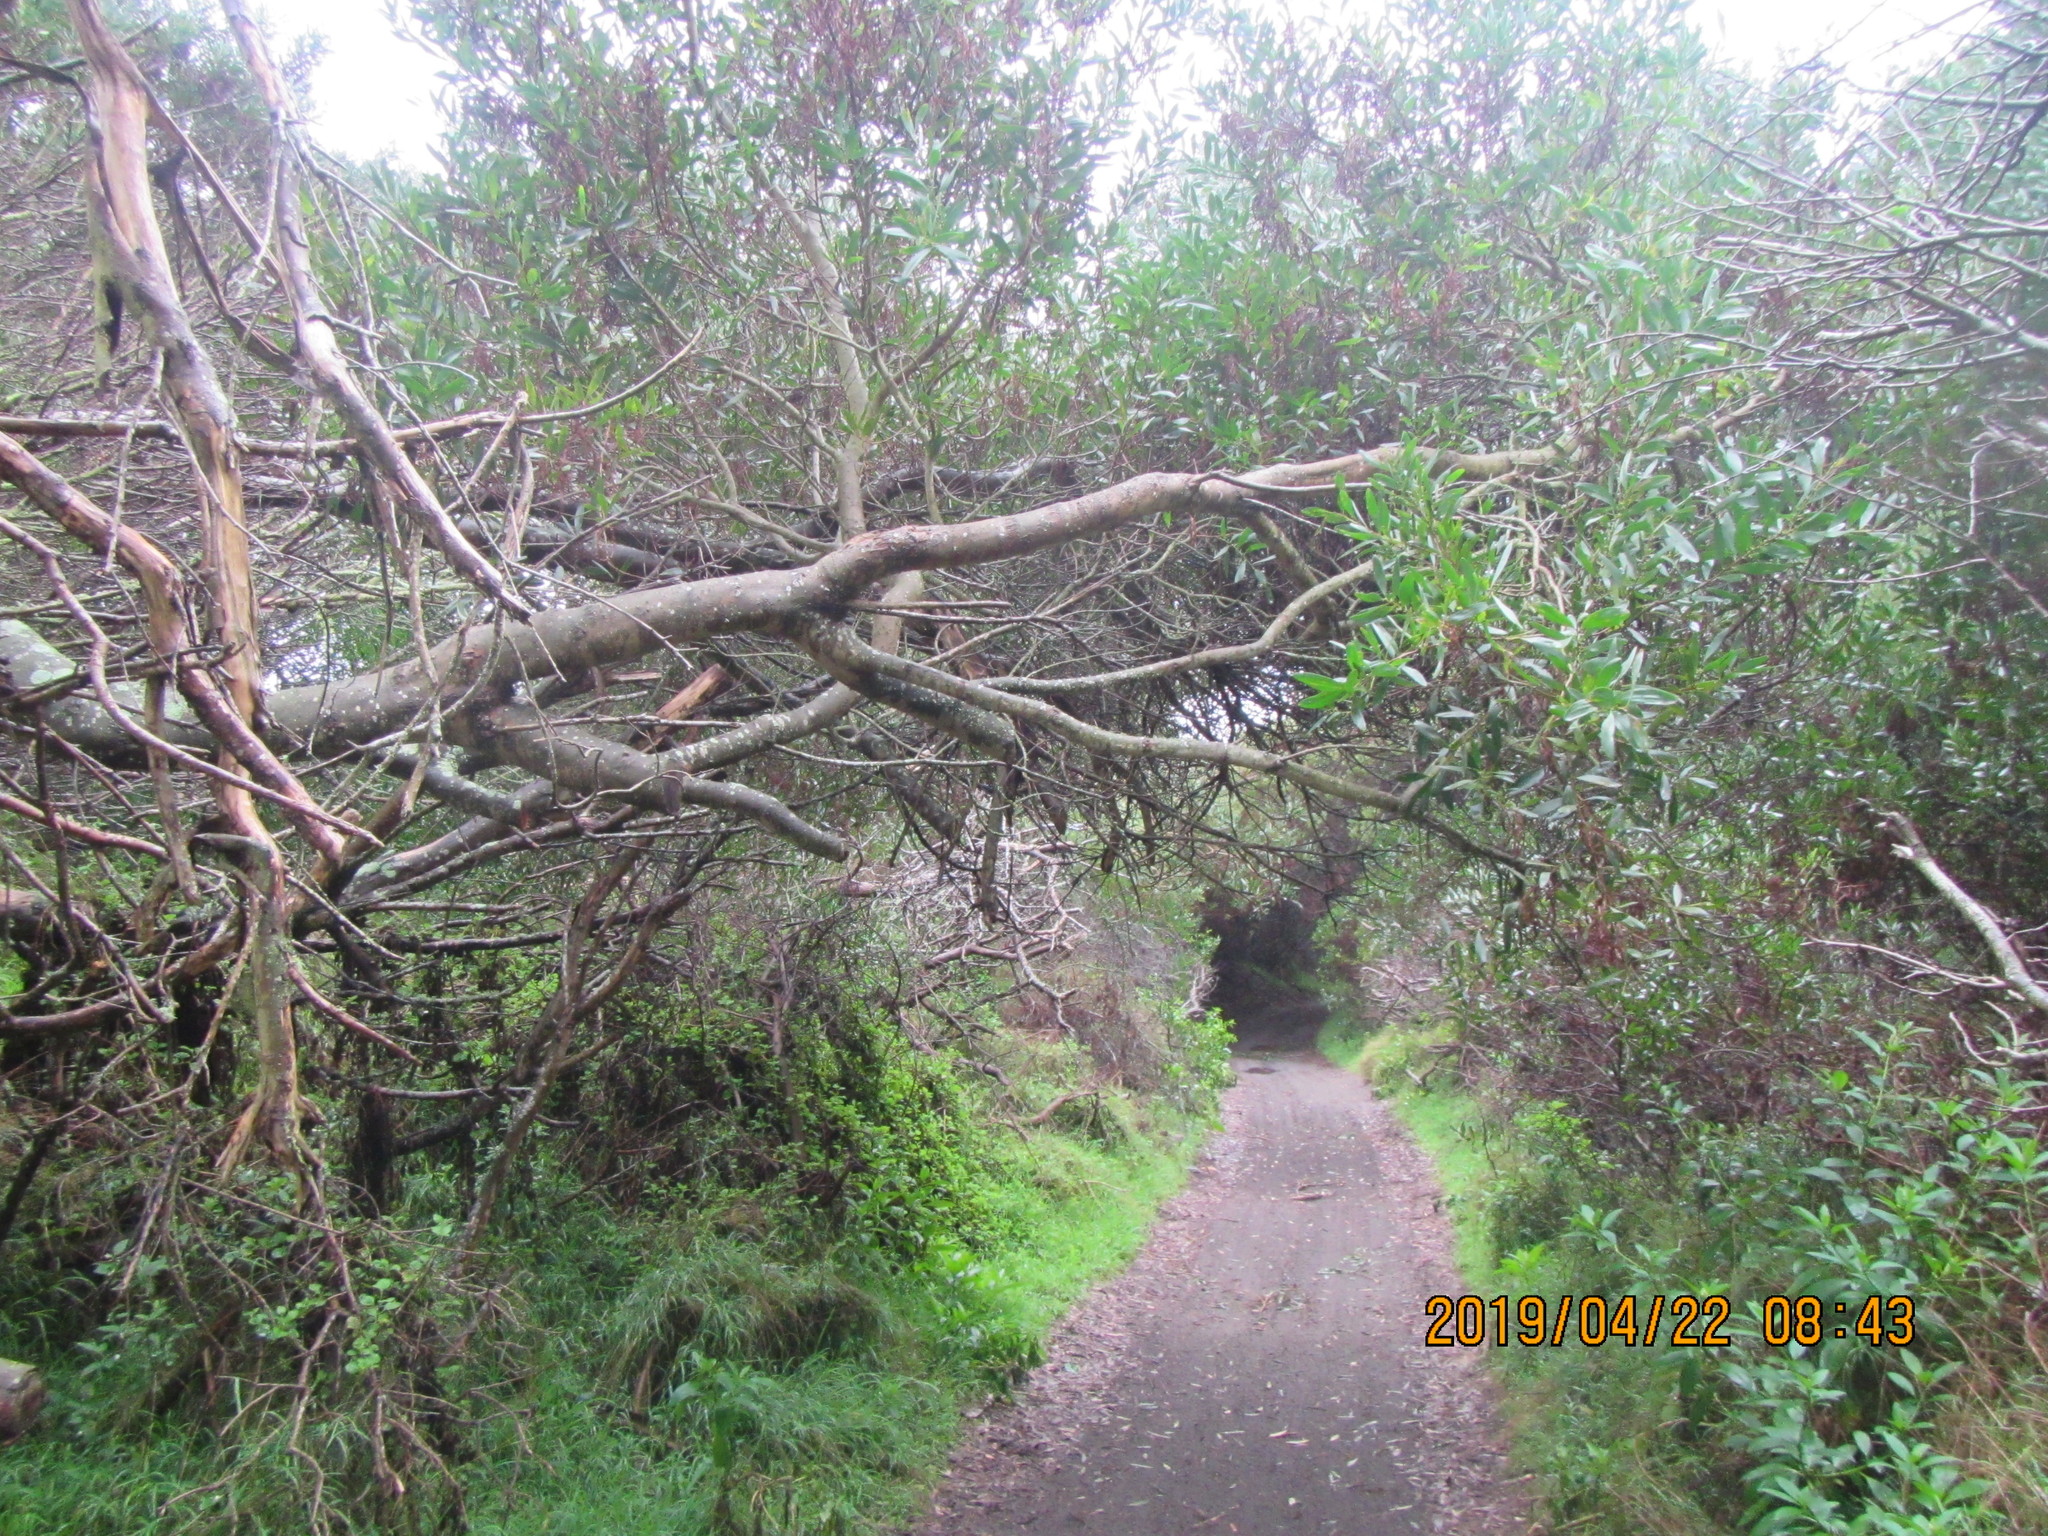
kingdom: Plantae
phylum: Tracheophyta
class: Magnoliopsida
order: Fabales
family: Fabaceae
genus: Acacia
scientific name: Acacia longifolia
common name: Sydney golden wattle
